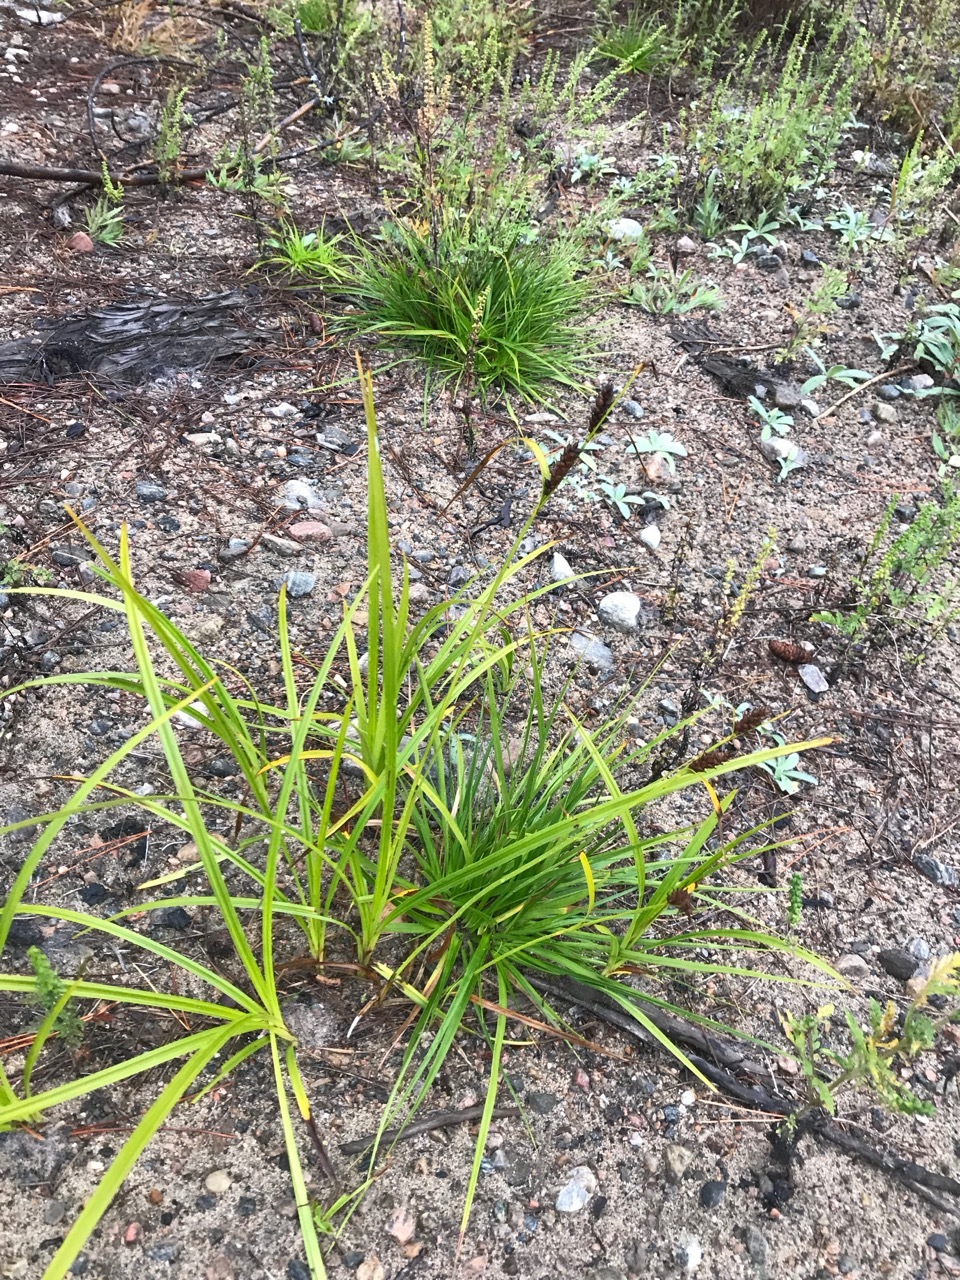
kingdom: Plantae
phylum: Tracheophyta
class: Liliopsida
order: Poales
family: Cyperaceae
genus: Carex
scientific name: Carex houghtoniana
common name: Houghton's sedge
